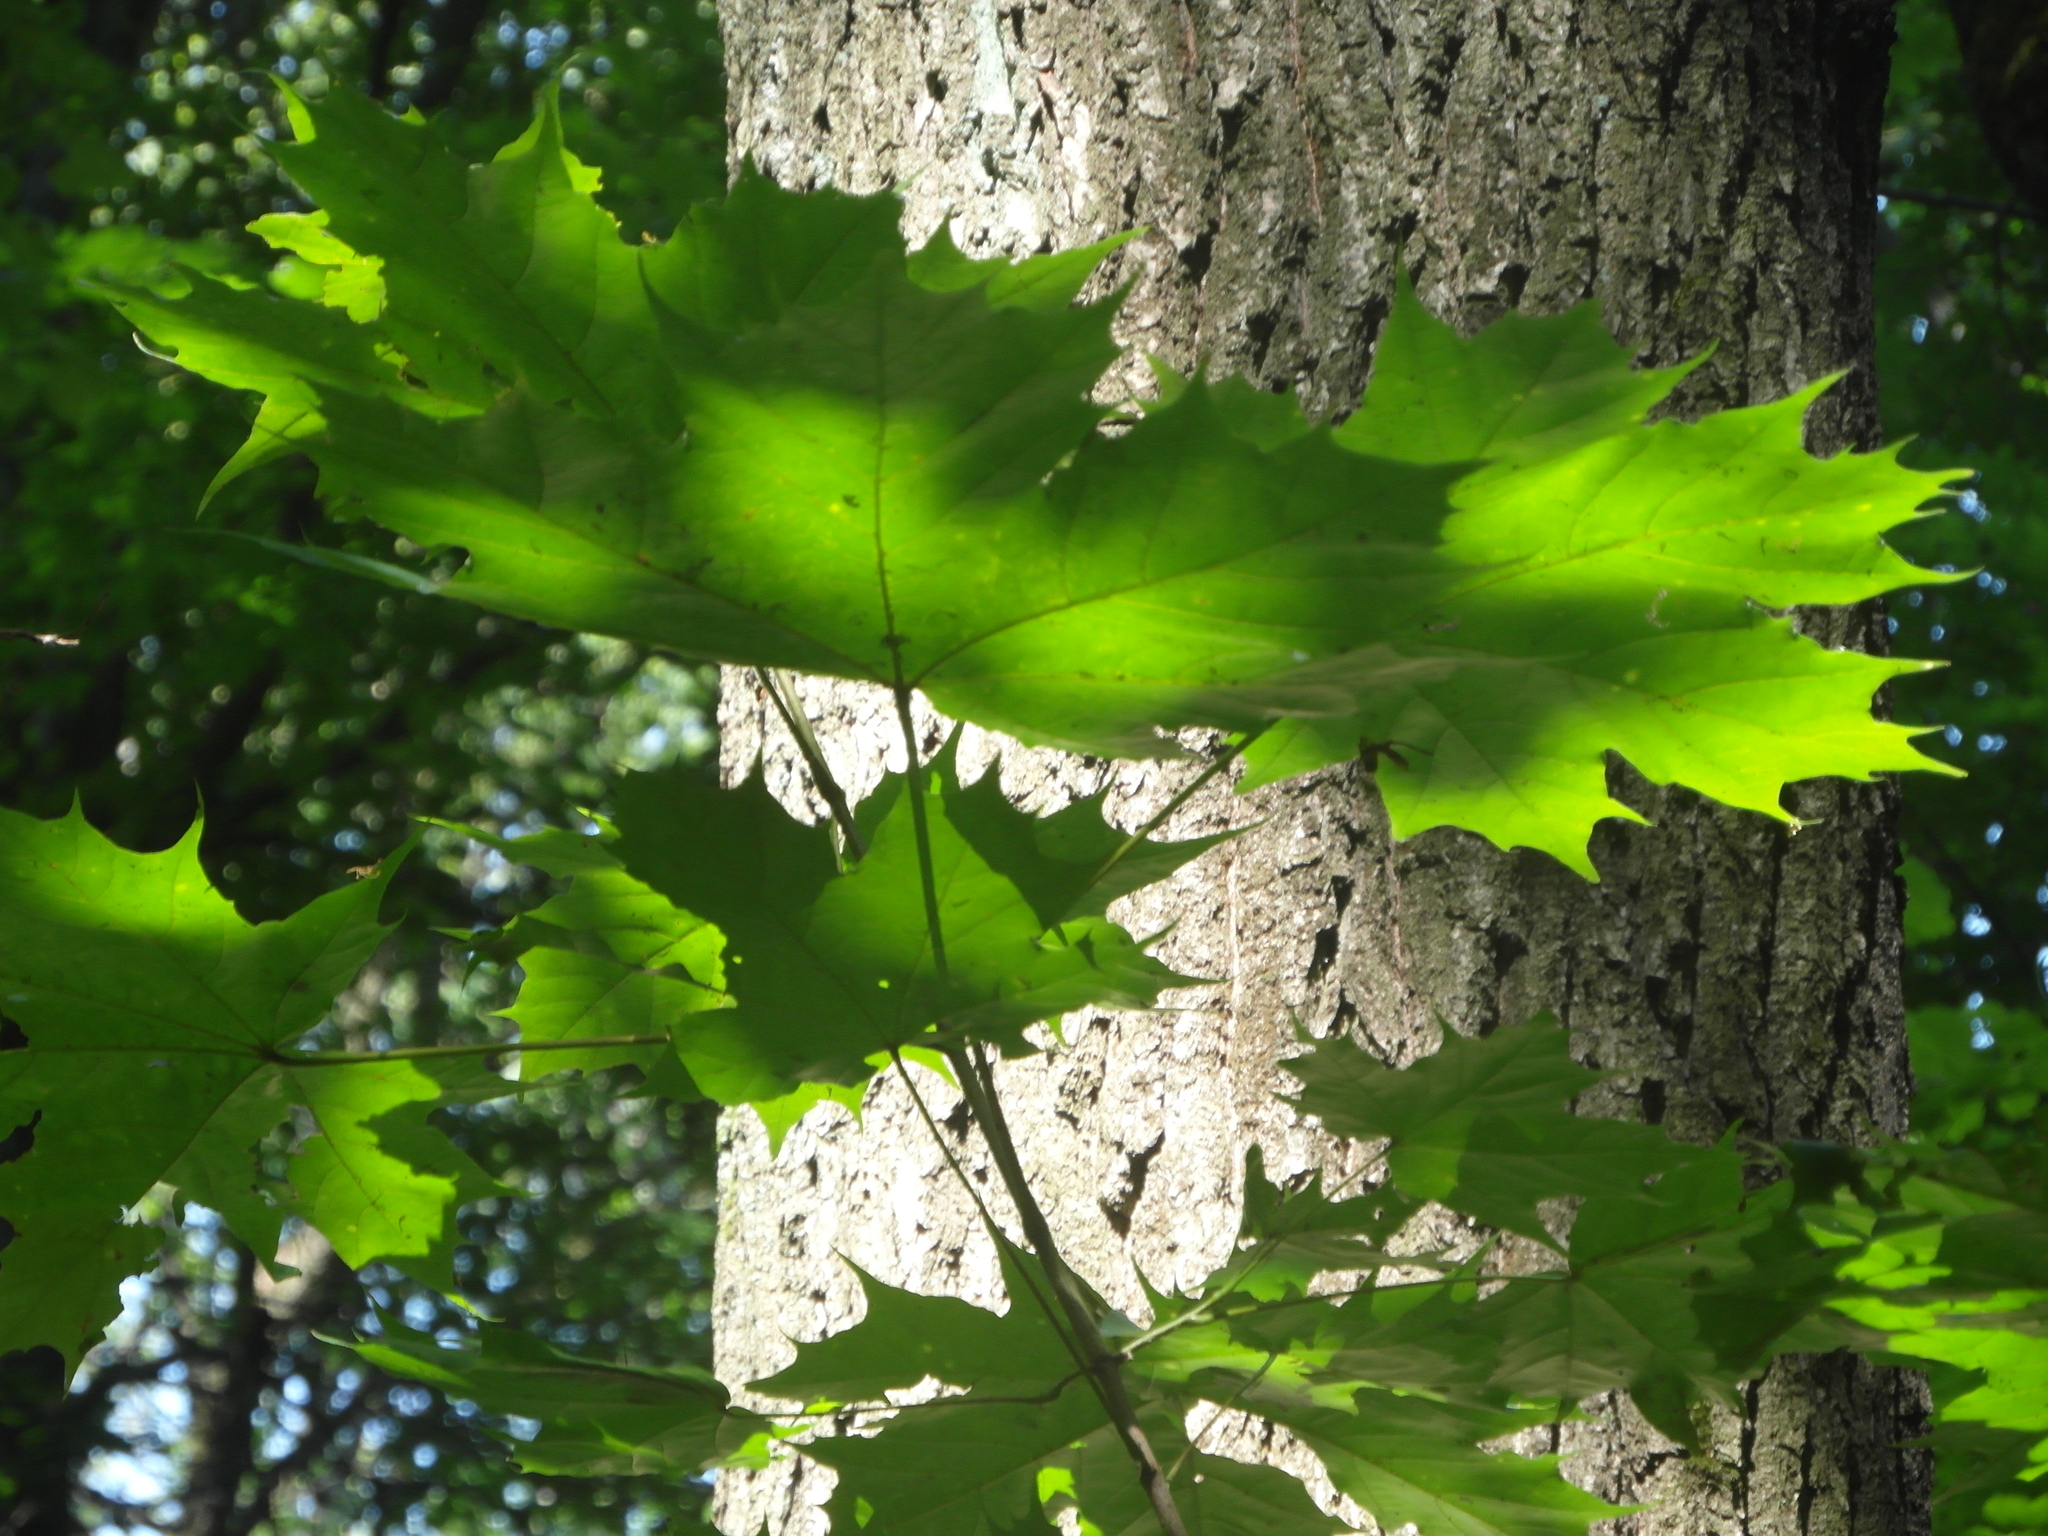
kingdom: Plantae
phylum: Tracheophyta
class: Magnoliopsida
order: Sapindales
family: Sapindaceae
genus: Acer
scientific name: Acer platanoides
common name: Norway maple
